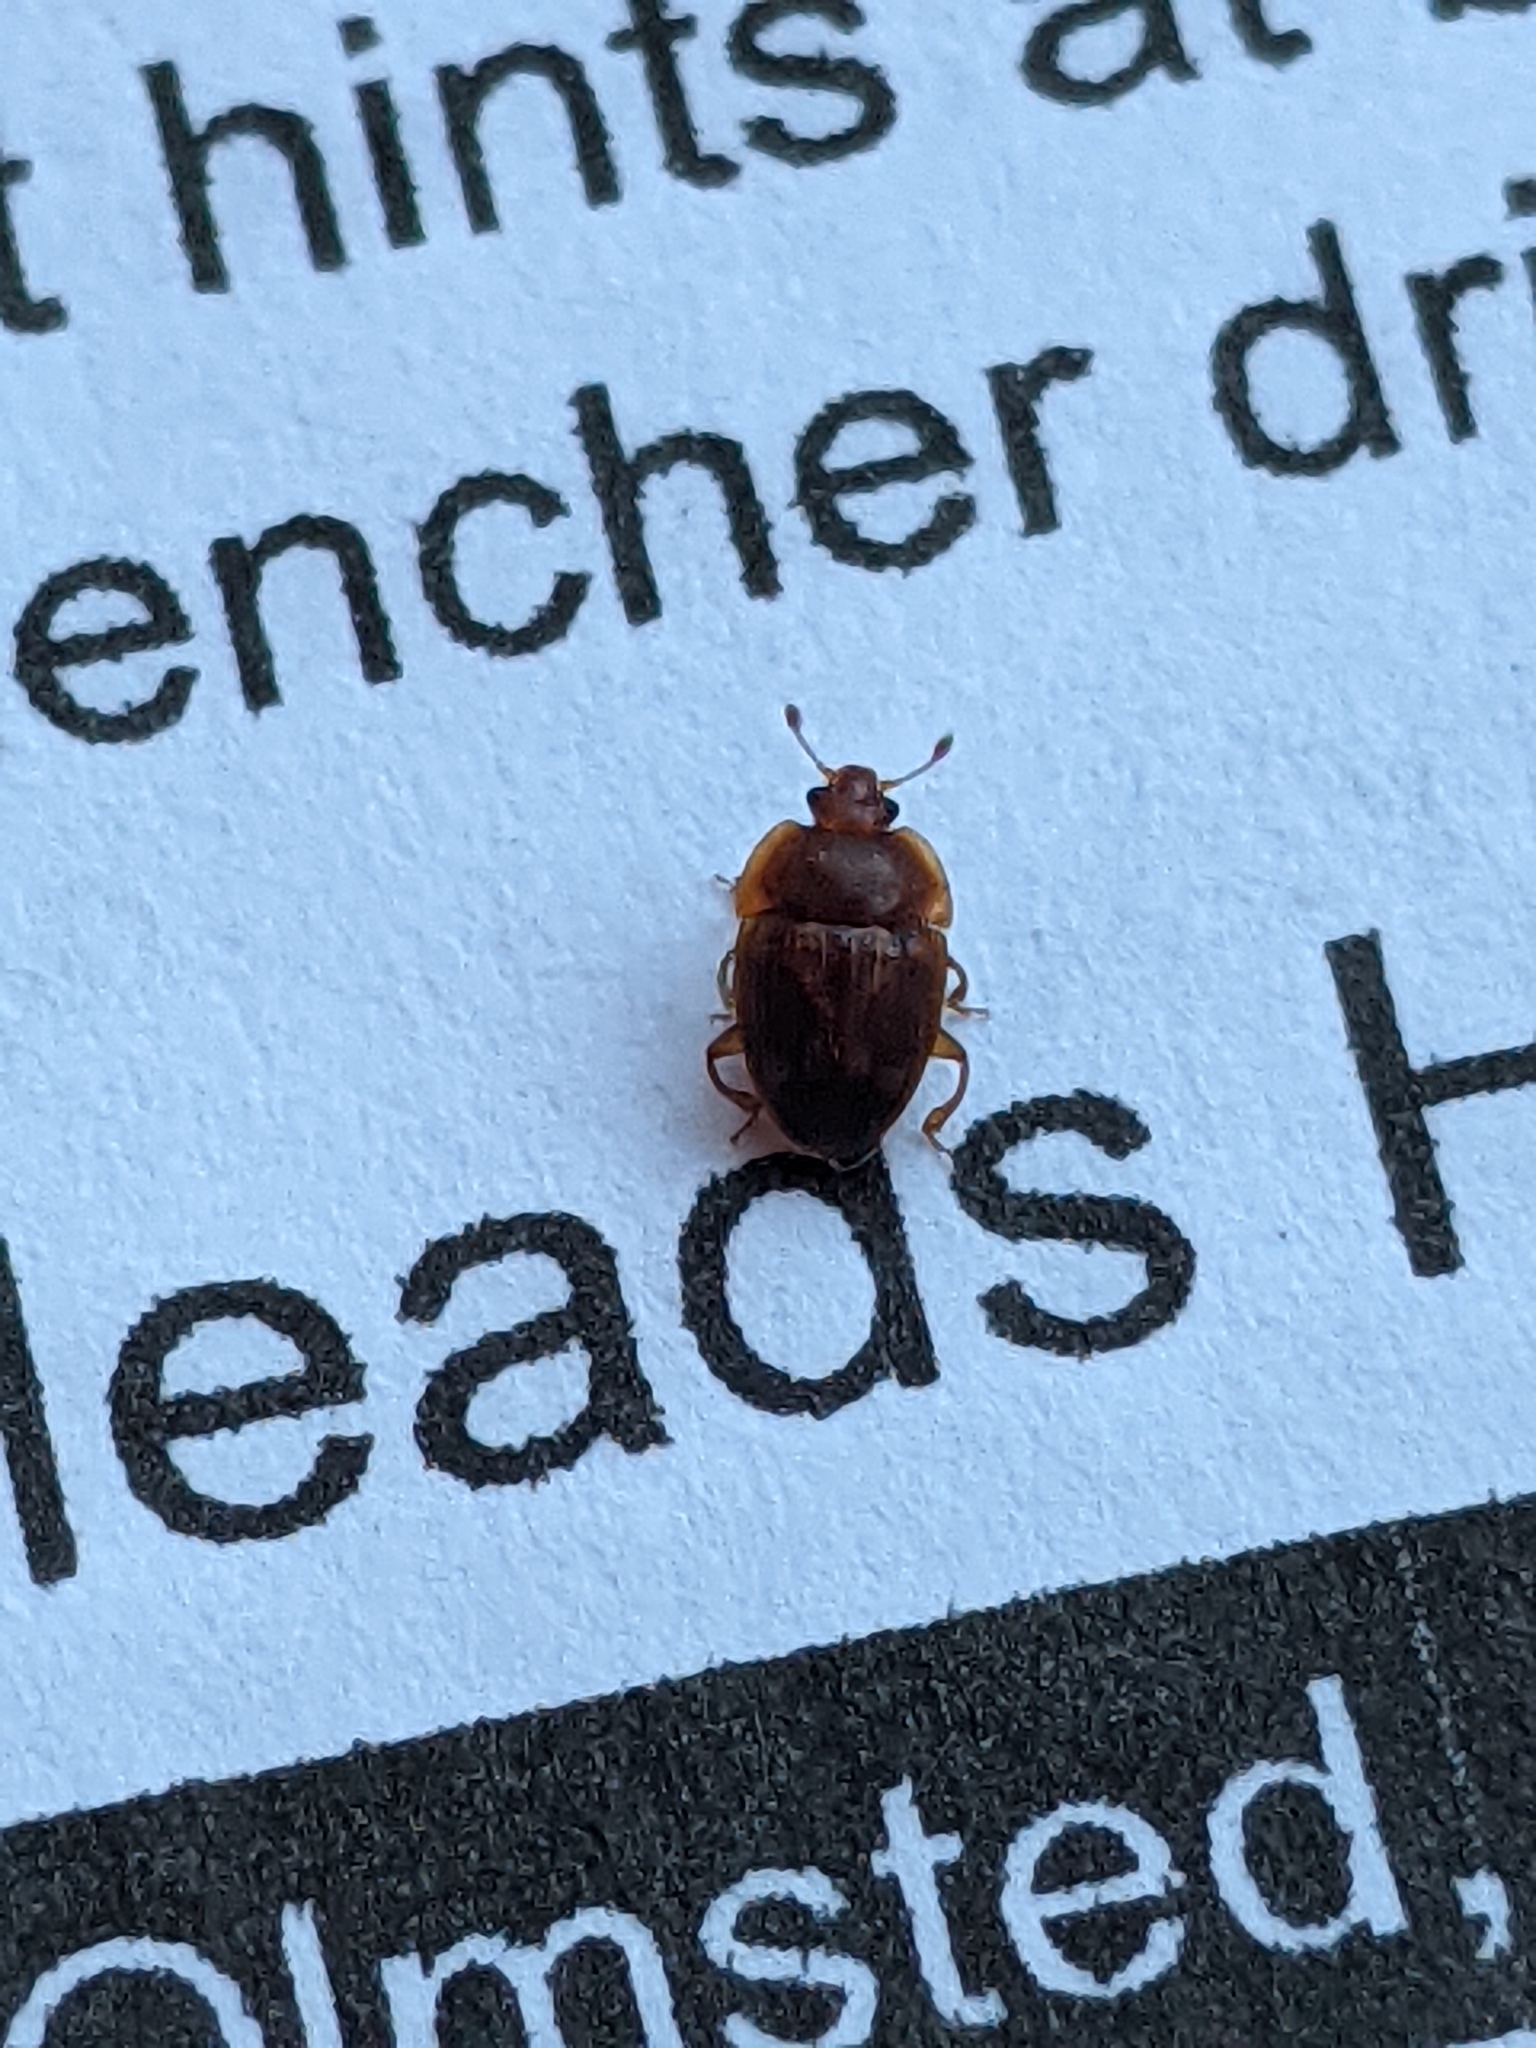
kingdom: Animalia
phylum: Arthropoda
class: Insecta
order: Coleoptera
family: Nitidulidae
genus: Stelidota
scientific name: Stelidota geminata
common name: Strawberry sap beetle
